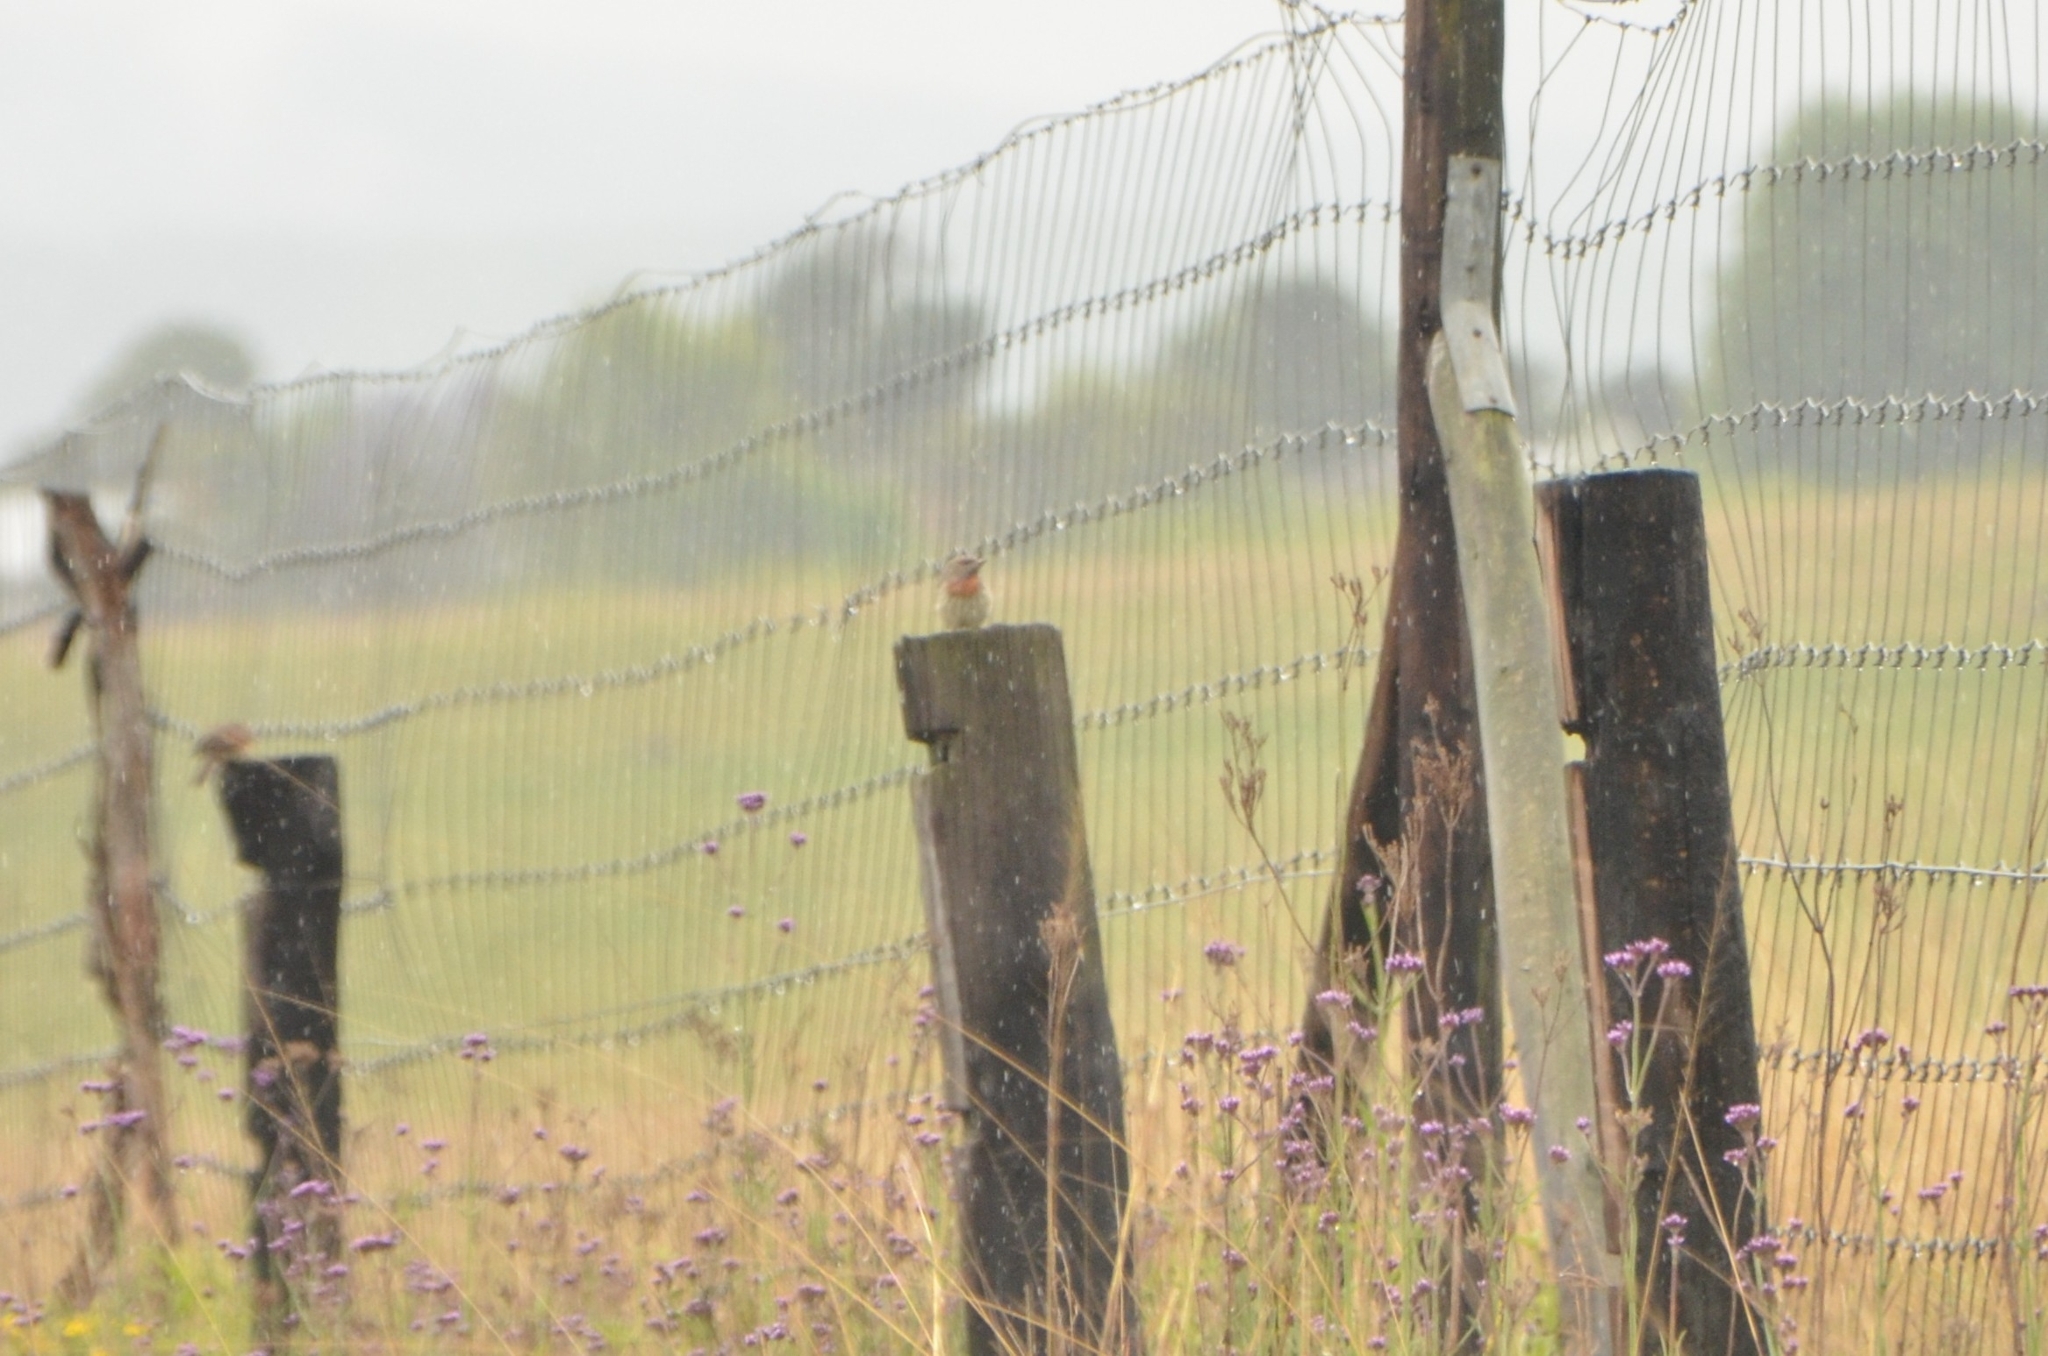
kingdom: Animalia
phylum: Chordata
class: Aves
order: Piciformes
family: Picidae
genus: Jynx
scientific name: Jynx ruficollis
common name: Red-throated wryneck
